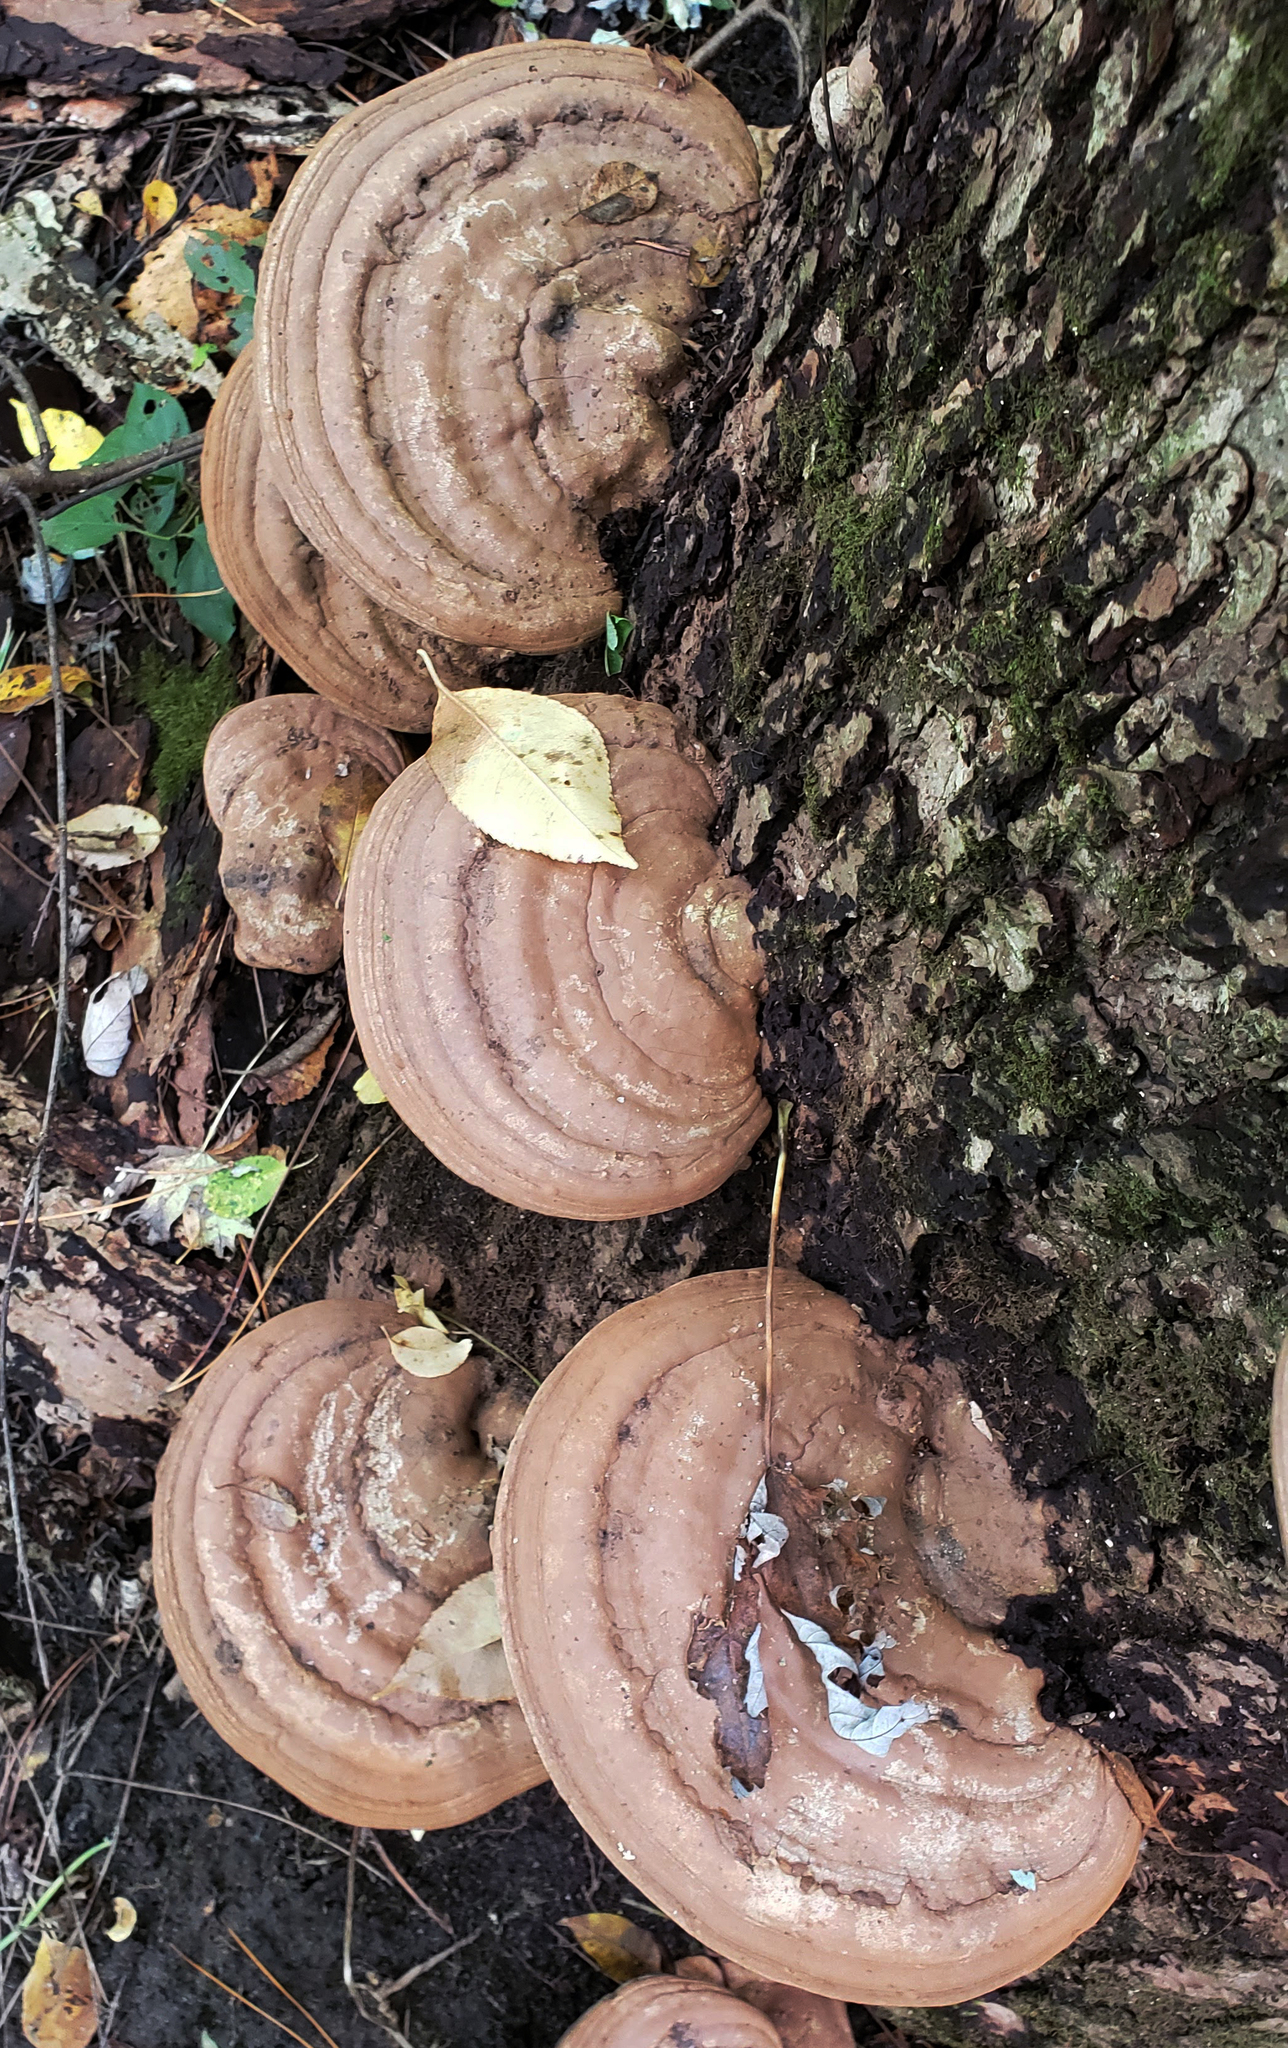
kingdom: Fungi
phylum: Basidiomycota
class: Agaricomycetes
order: Polyporales
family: Polyporaceae
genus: Ganoderma
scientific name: Ganoderma applanatum
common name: Artist's bracket
